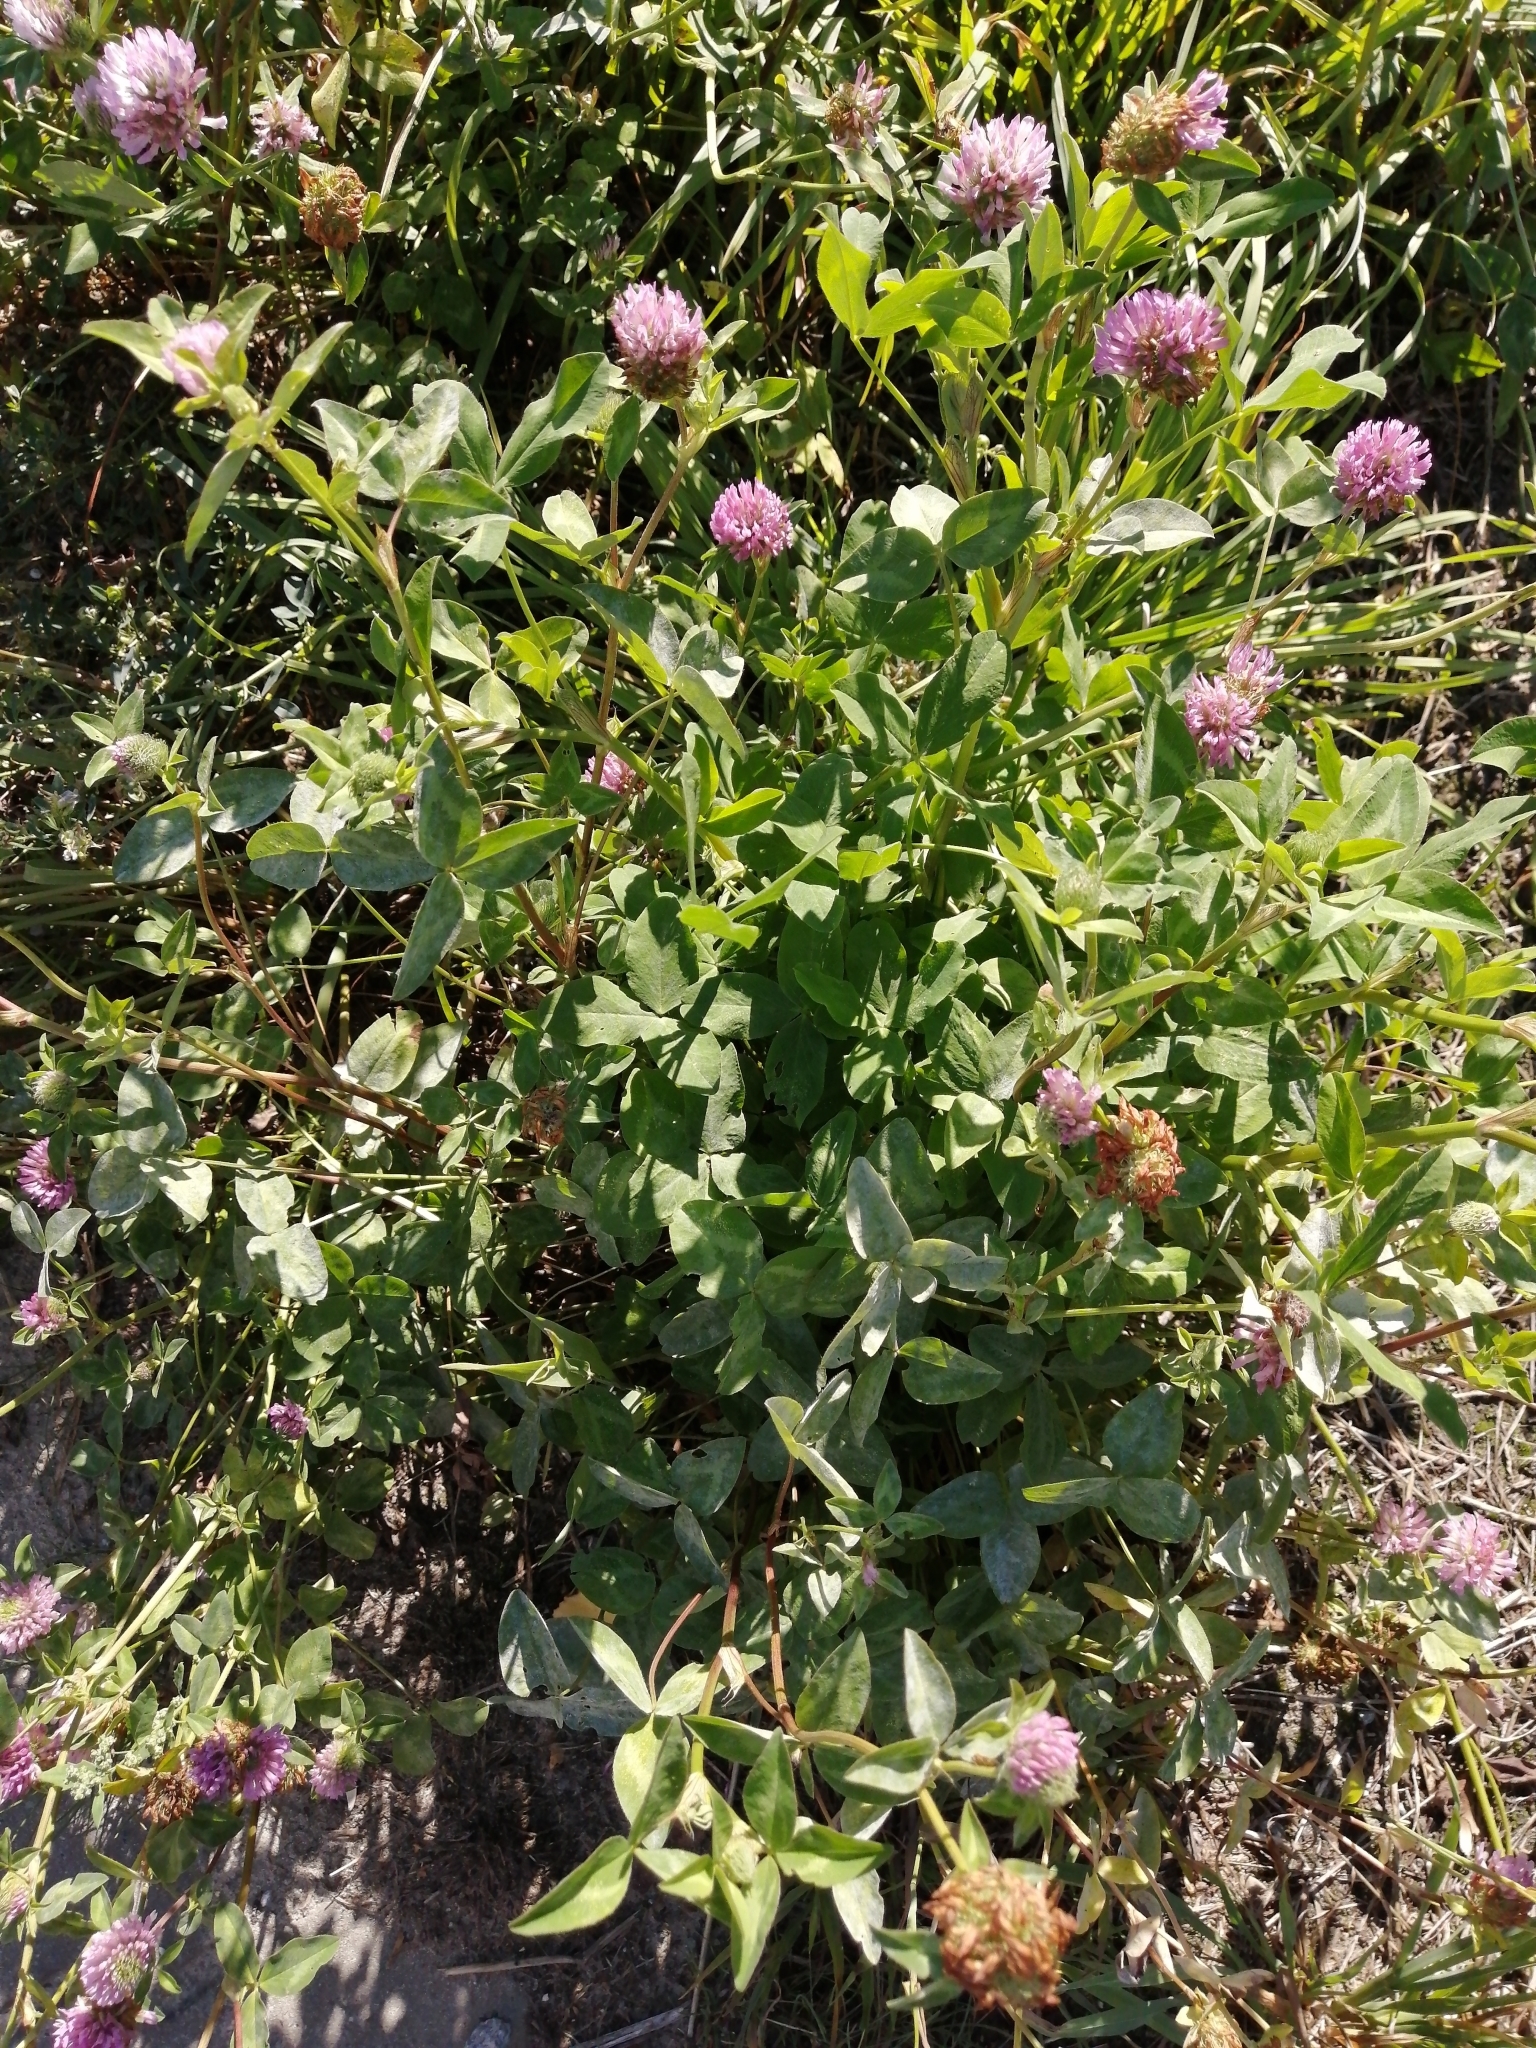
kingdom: Plantae
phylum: Tracheophyta
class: Magnoliopsida
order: Fabales
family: Fabaceae
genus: Trifolium
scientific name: Trifolium pratense
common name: Red clover
